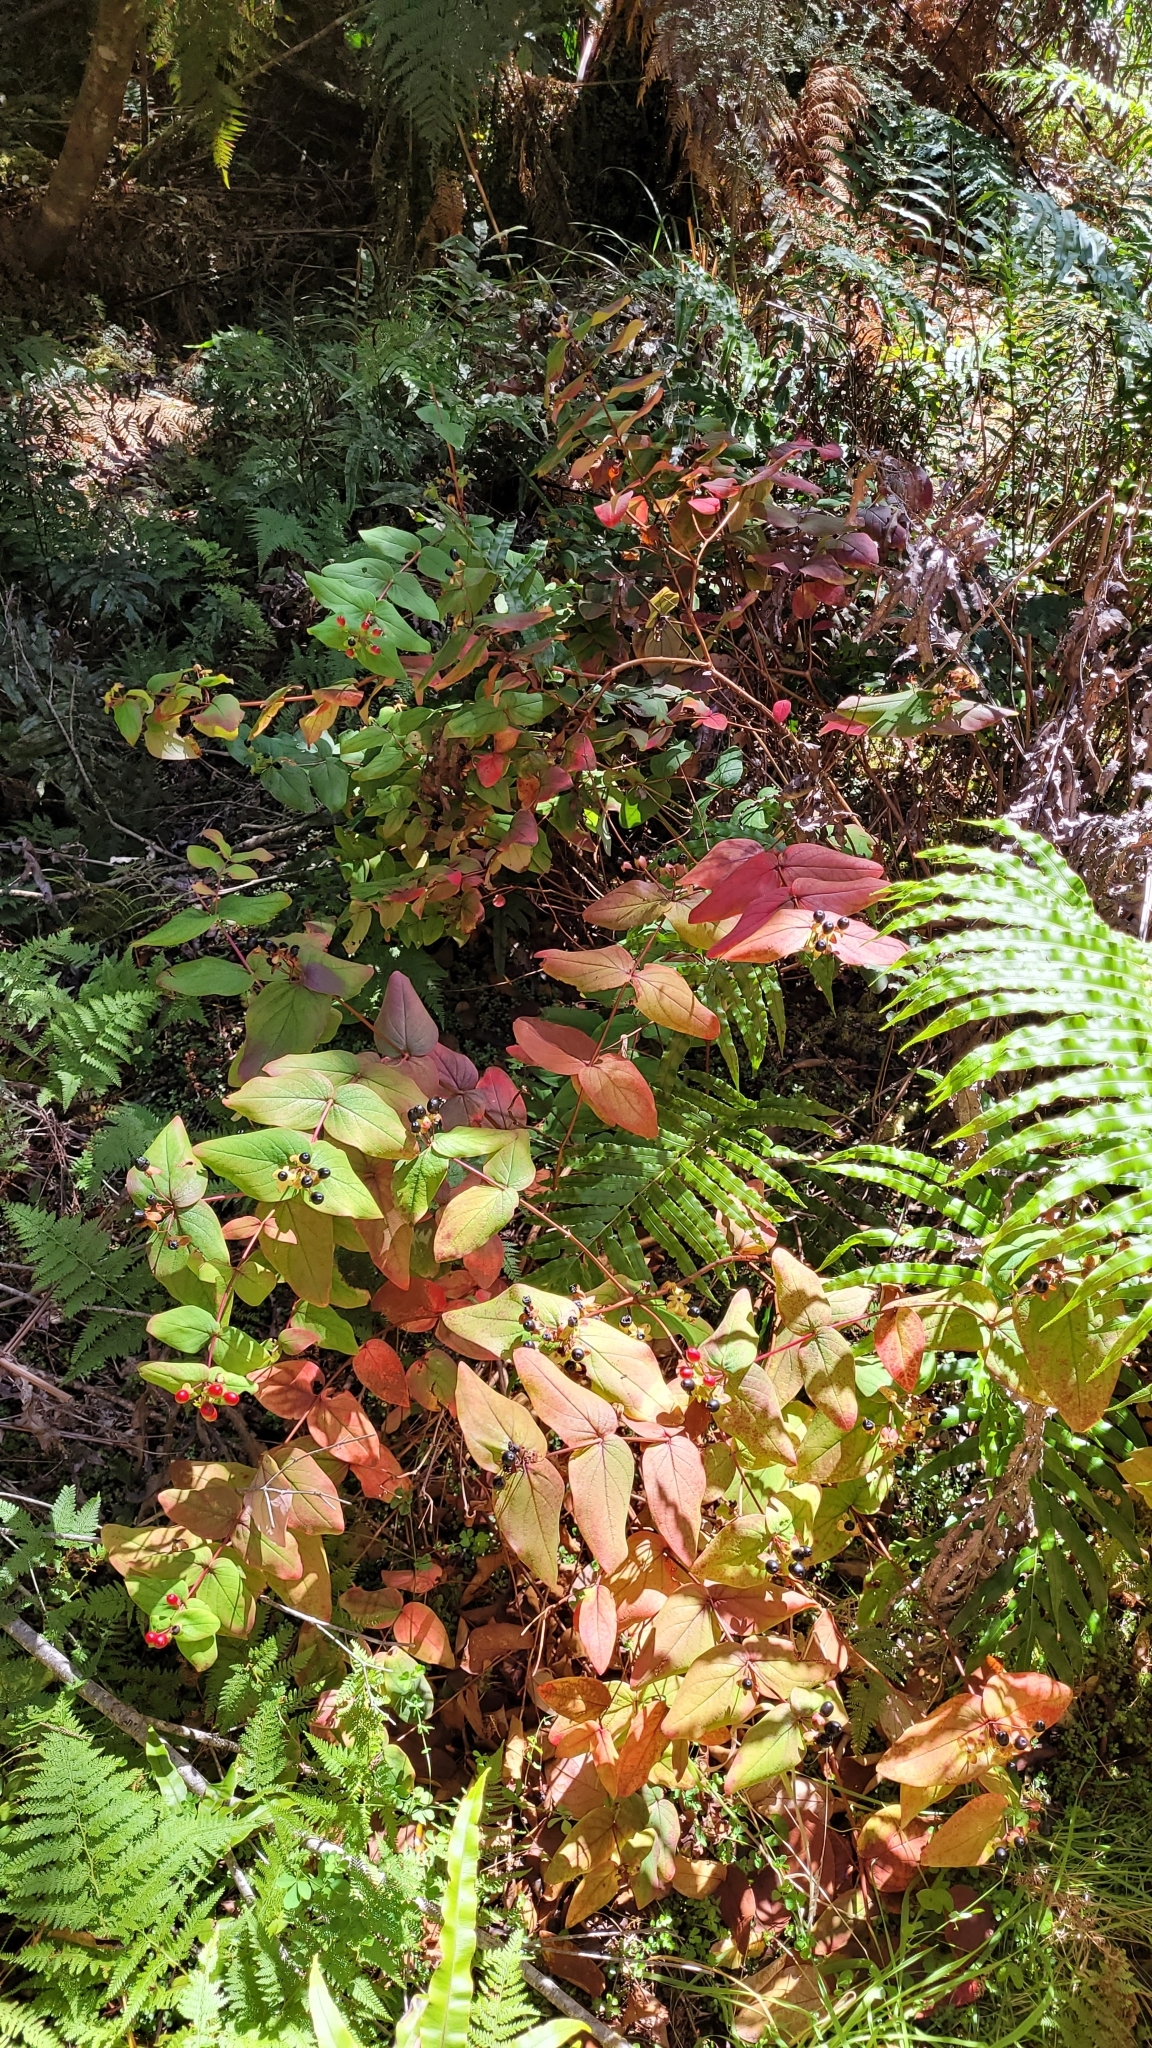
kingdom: Plantae
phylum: Tracheophyta
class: Magnoliopsida
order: Malpighiales
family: Hypericaceae
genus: Hypericum
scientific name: Hypericum androsaemum
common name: Sweet-amber
